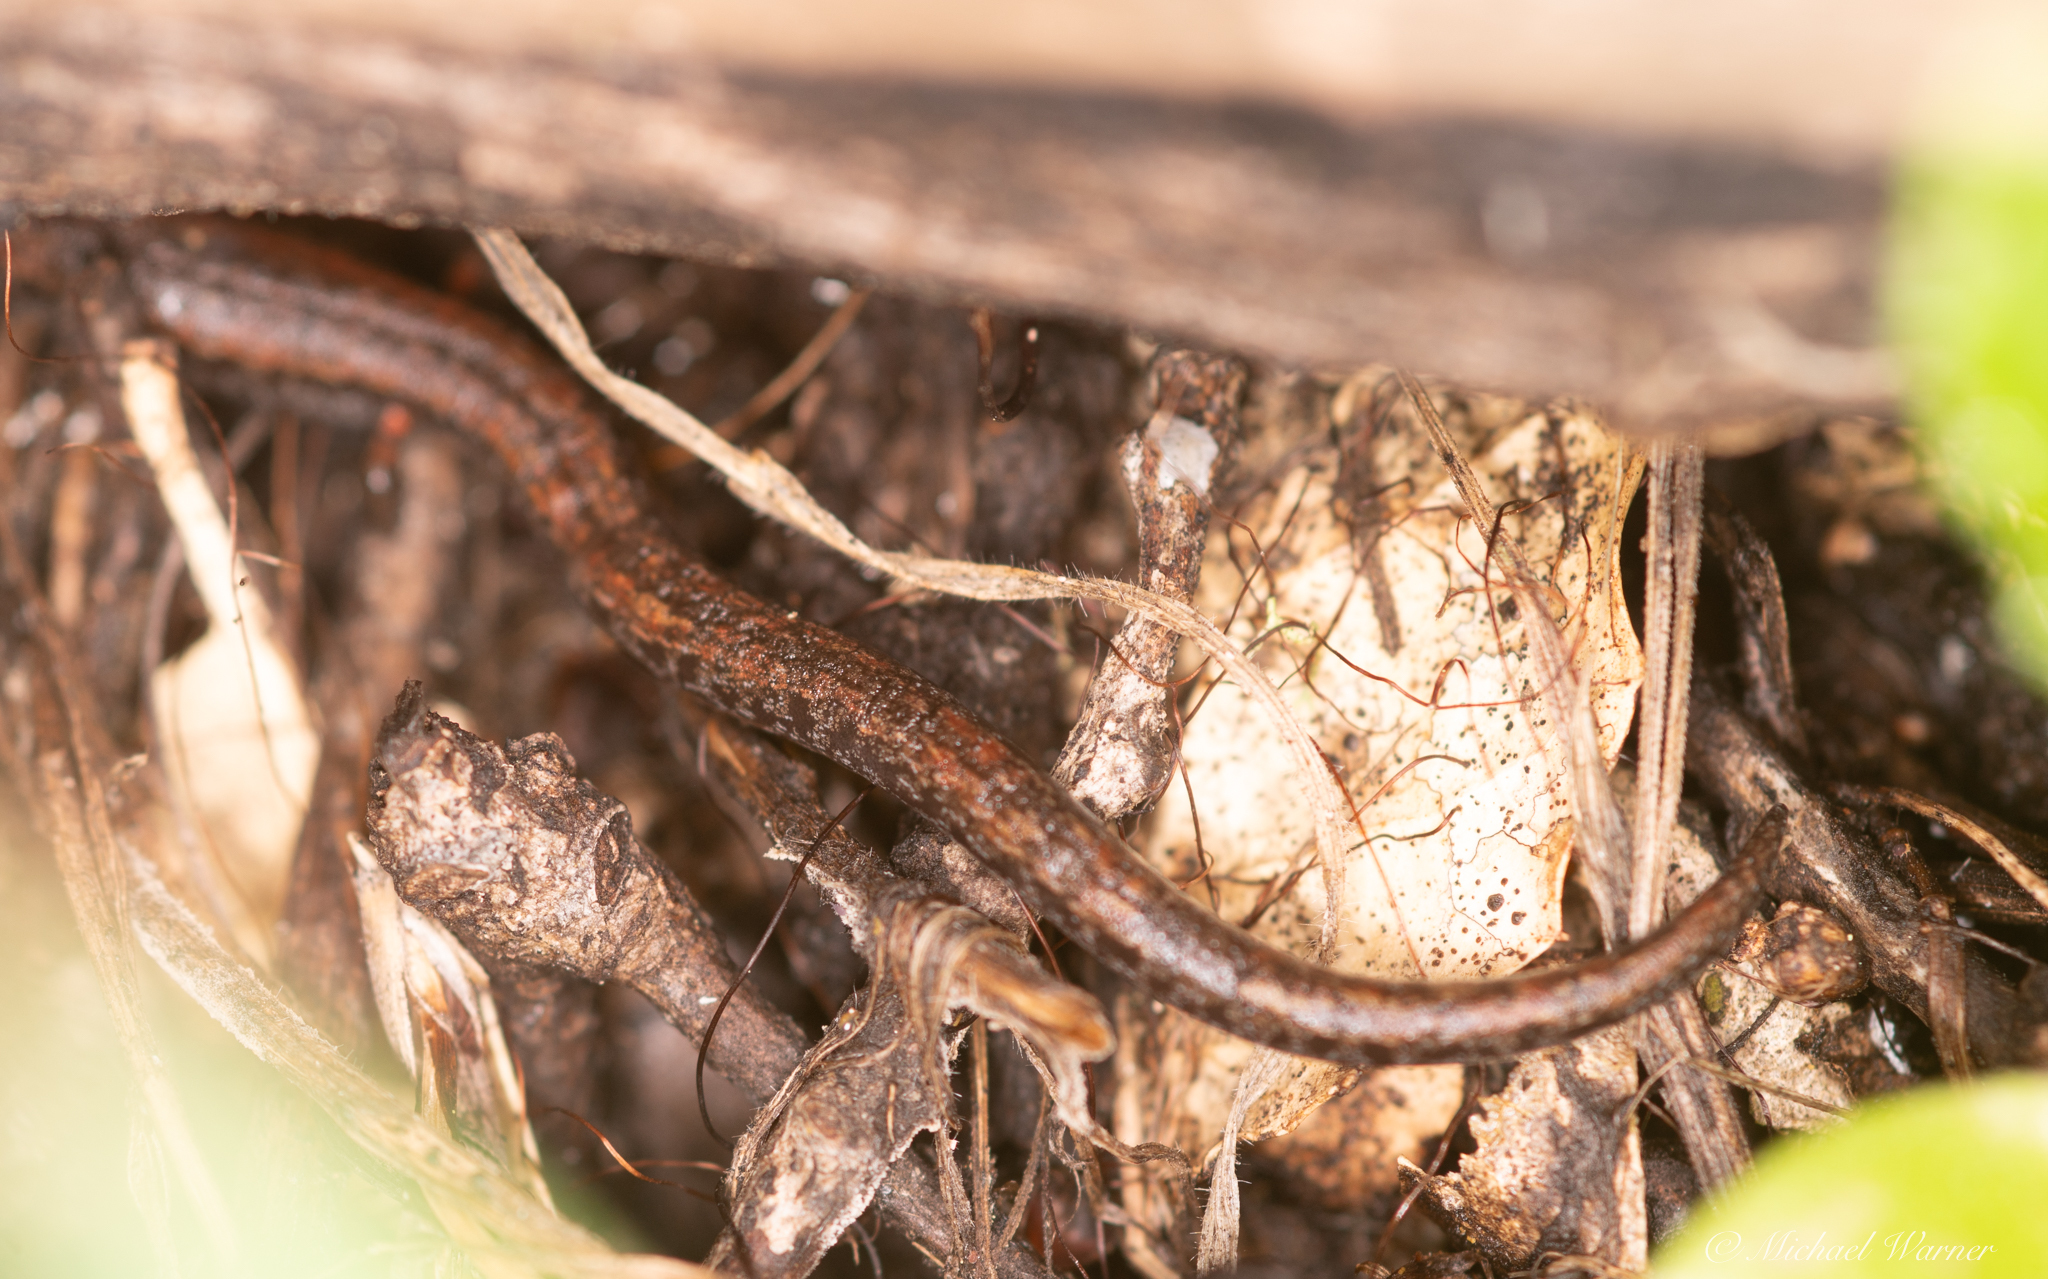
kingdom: Animalia
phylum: Chordata
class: Amphibia
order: Caudata
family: Plethodontidae
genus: Batrachoseps
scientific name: Batrachoseps attenuatus
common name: California slender salamander
